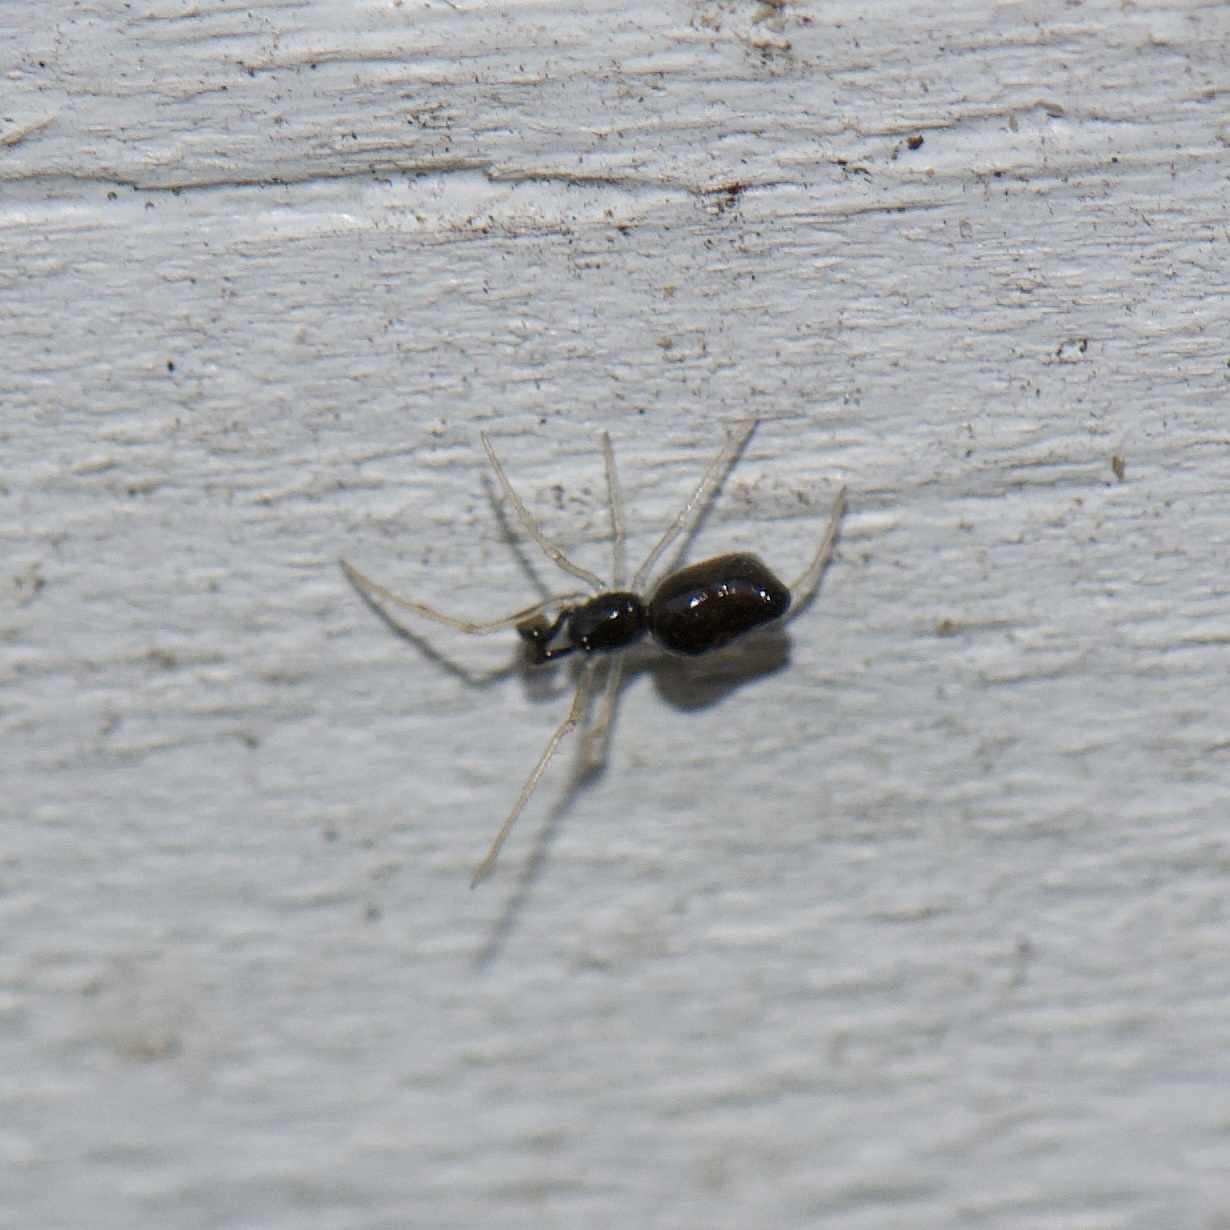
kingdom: Animalia
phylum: Arthropoda
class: Arachnida
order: Araneae
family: Theridiidae
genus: Coleosoma
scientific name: Coleosoma acutiventer
